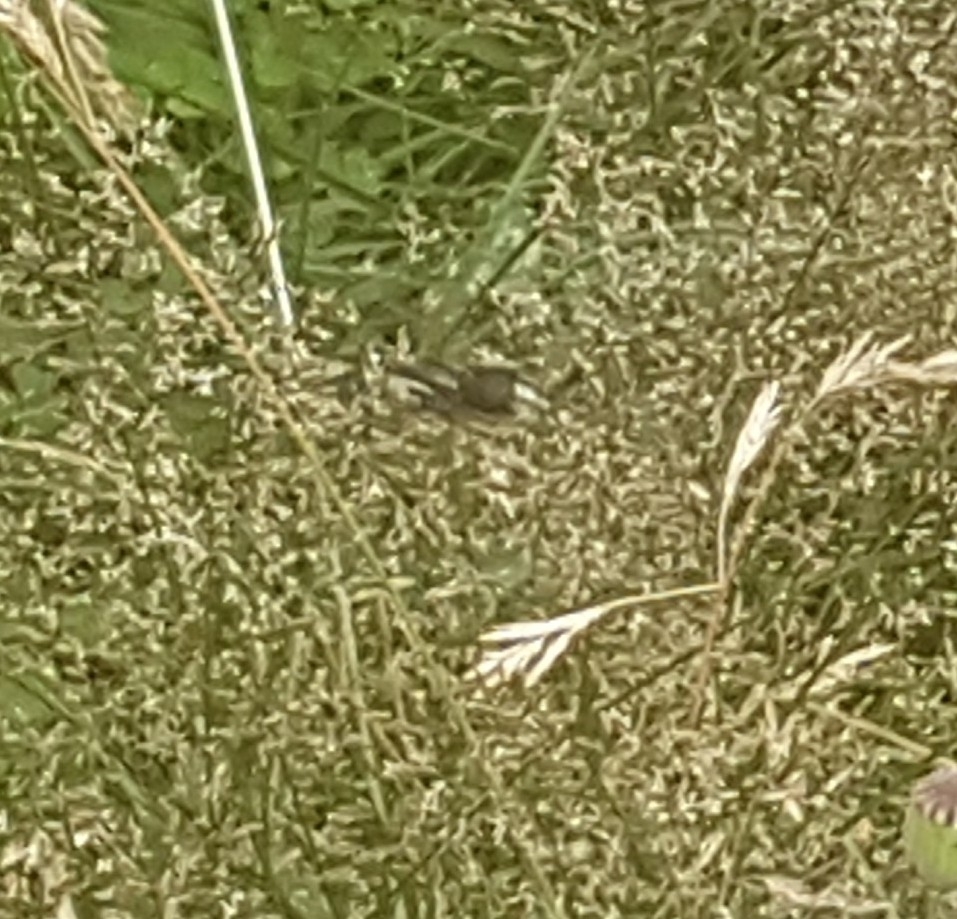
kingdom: Animalia
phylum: Arthropoda
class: Insecta
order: Hymenoptera
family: Vespidae
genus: Dolichovespula
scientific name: Dolichovespula maculata
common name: Bald-faced hornet
